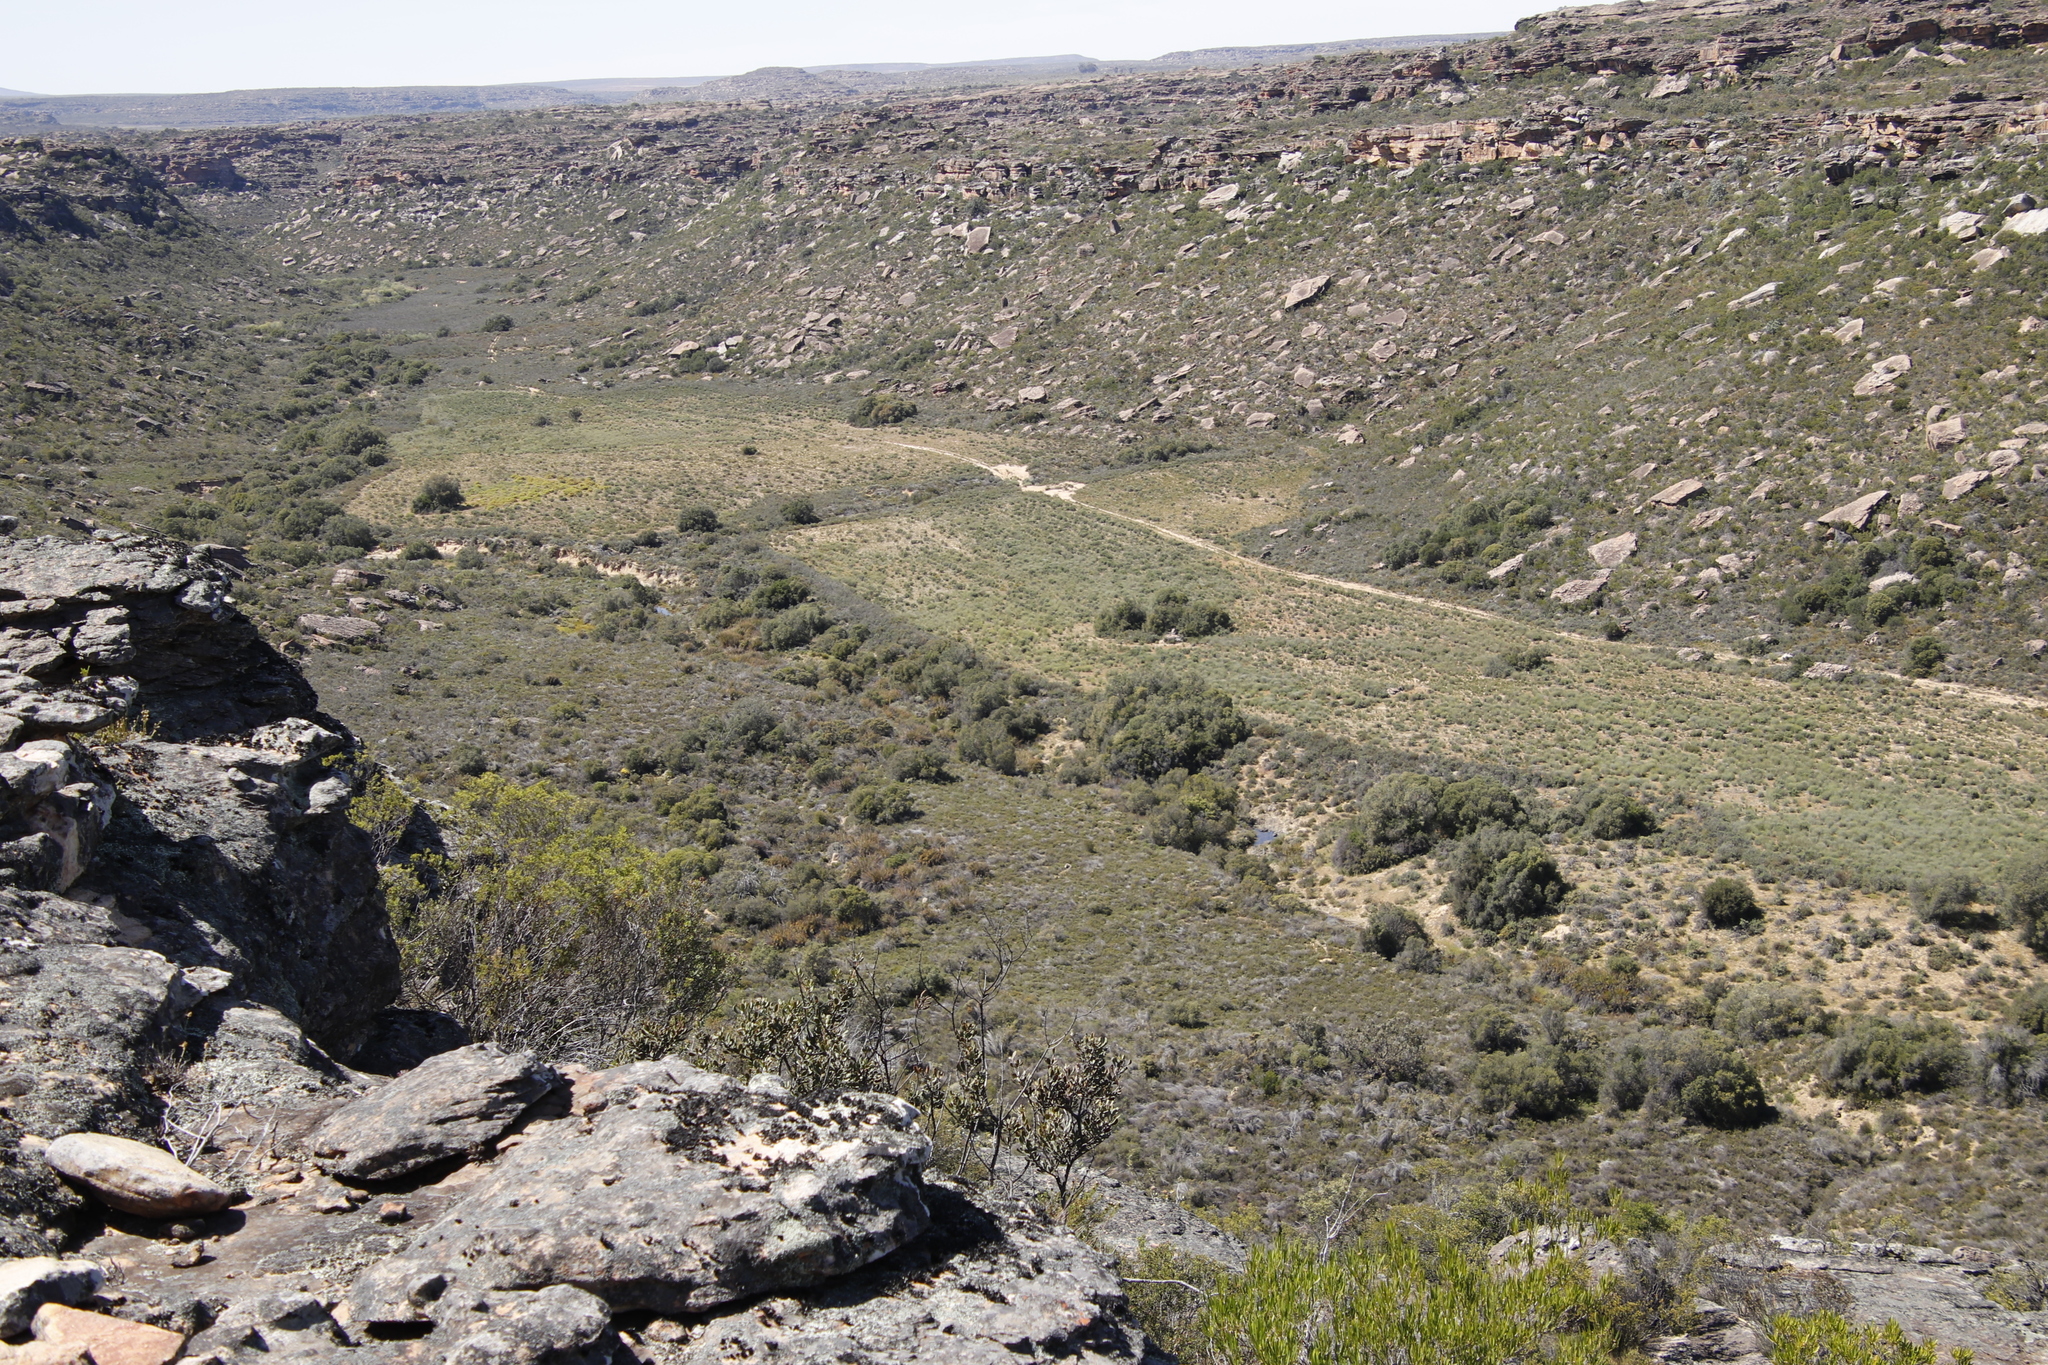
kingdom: Plantae
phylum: Tracheophyta
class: Magnoliopsida
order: Lamiales
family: Oleaceae
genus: Olea
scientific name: Olea europaea
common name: Olive
